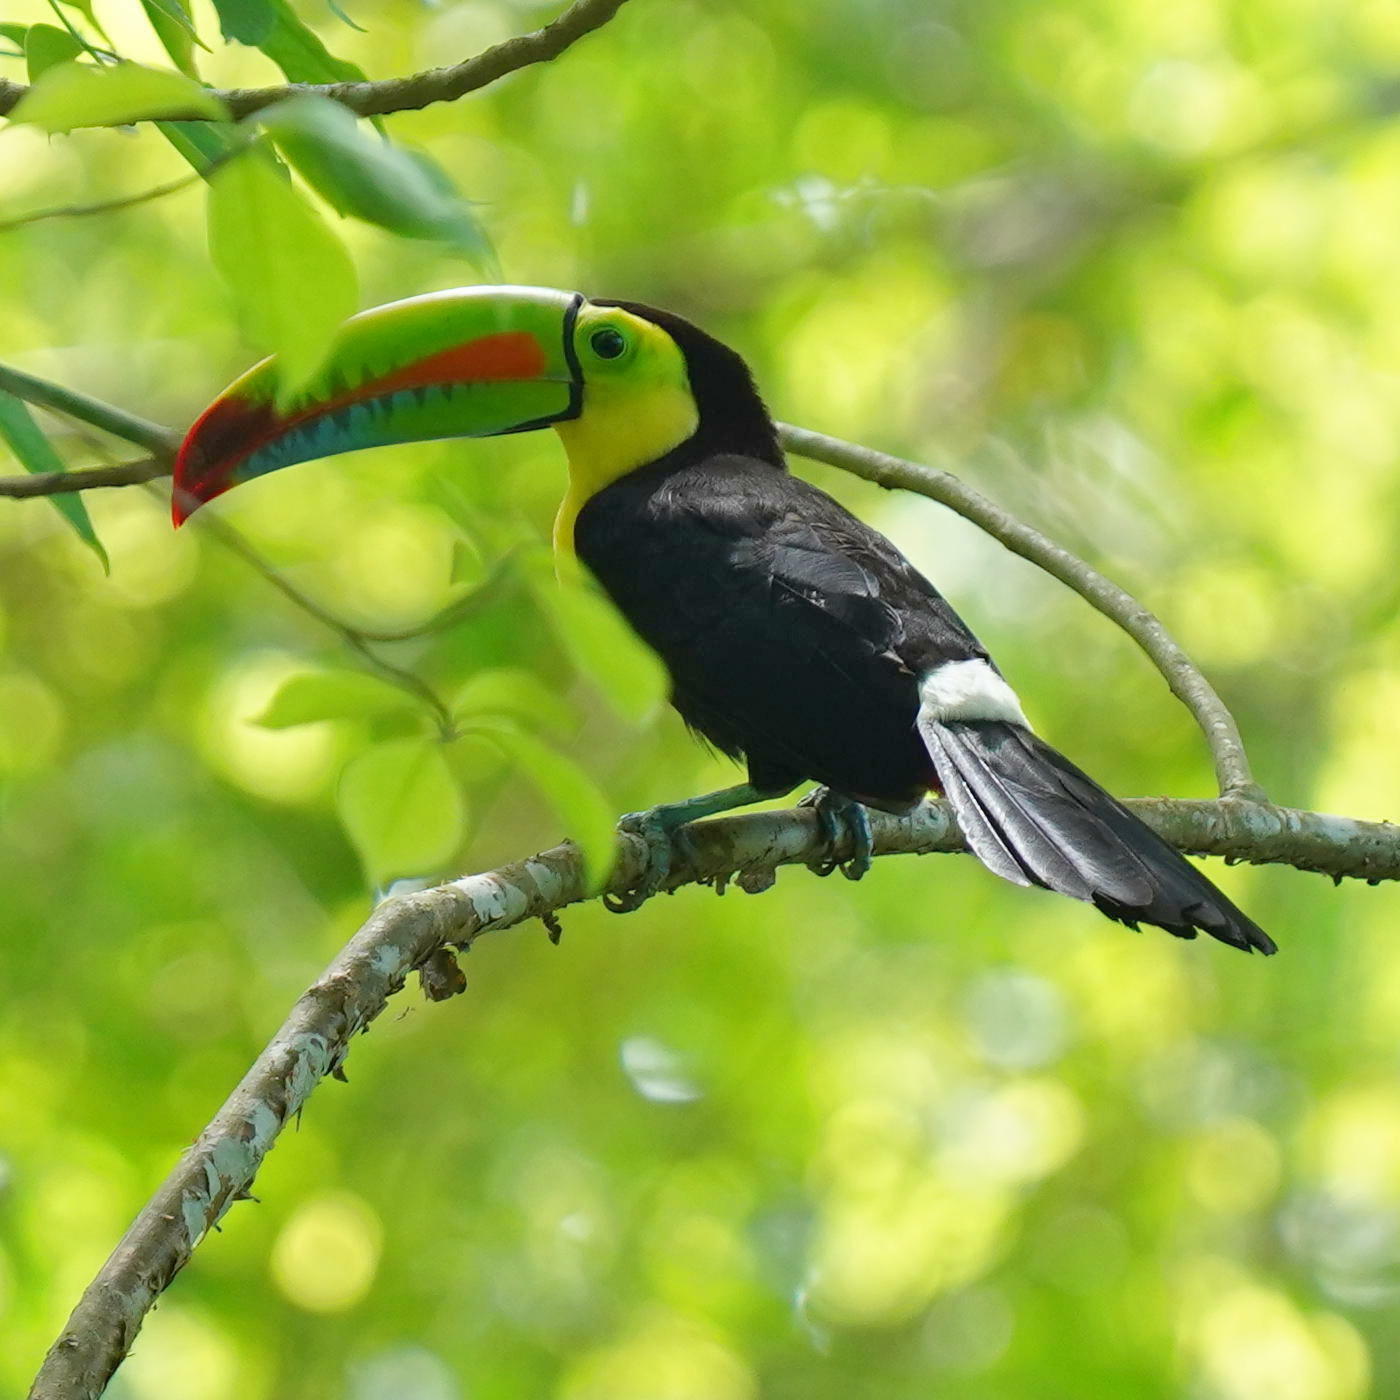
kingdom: Animalia
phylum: Chordata
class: Aves
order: Piciformes
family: Ramphastidae
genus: Ramphastos
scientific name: Ramphastos sulfuratus
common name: Keel-billed toucan
